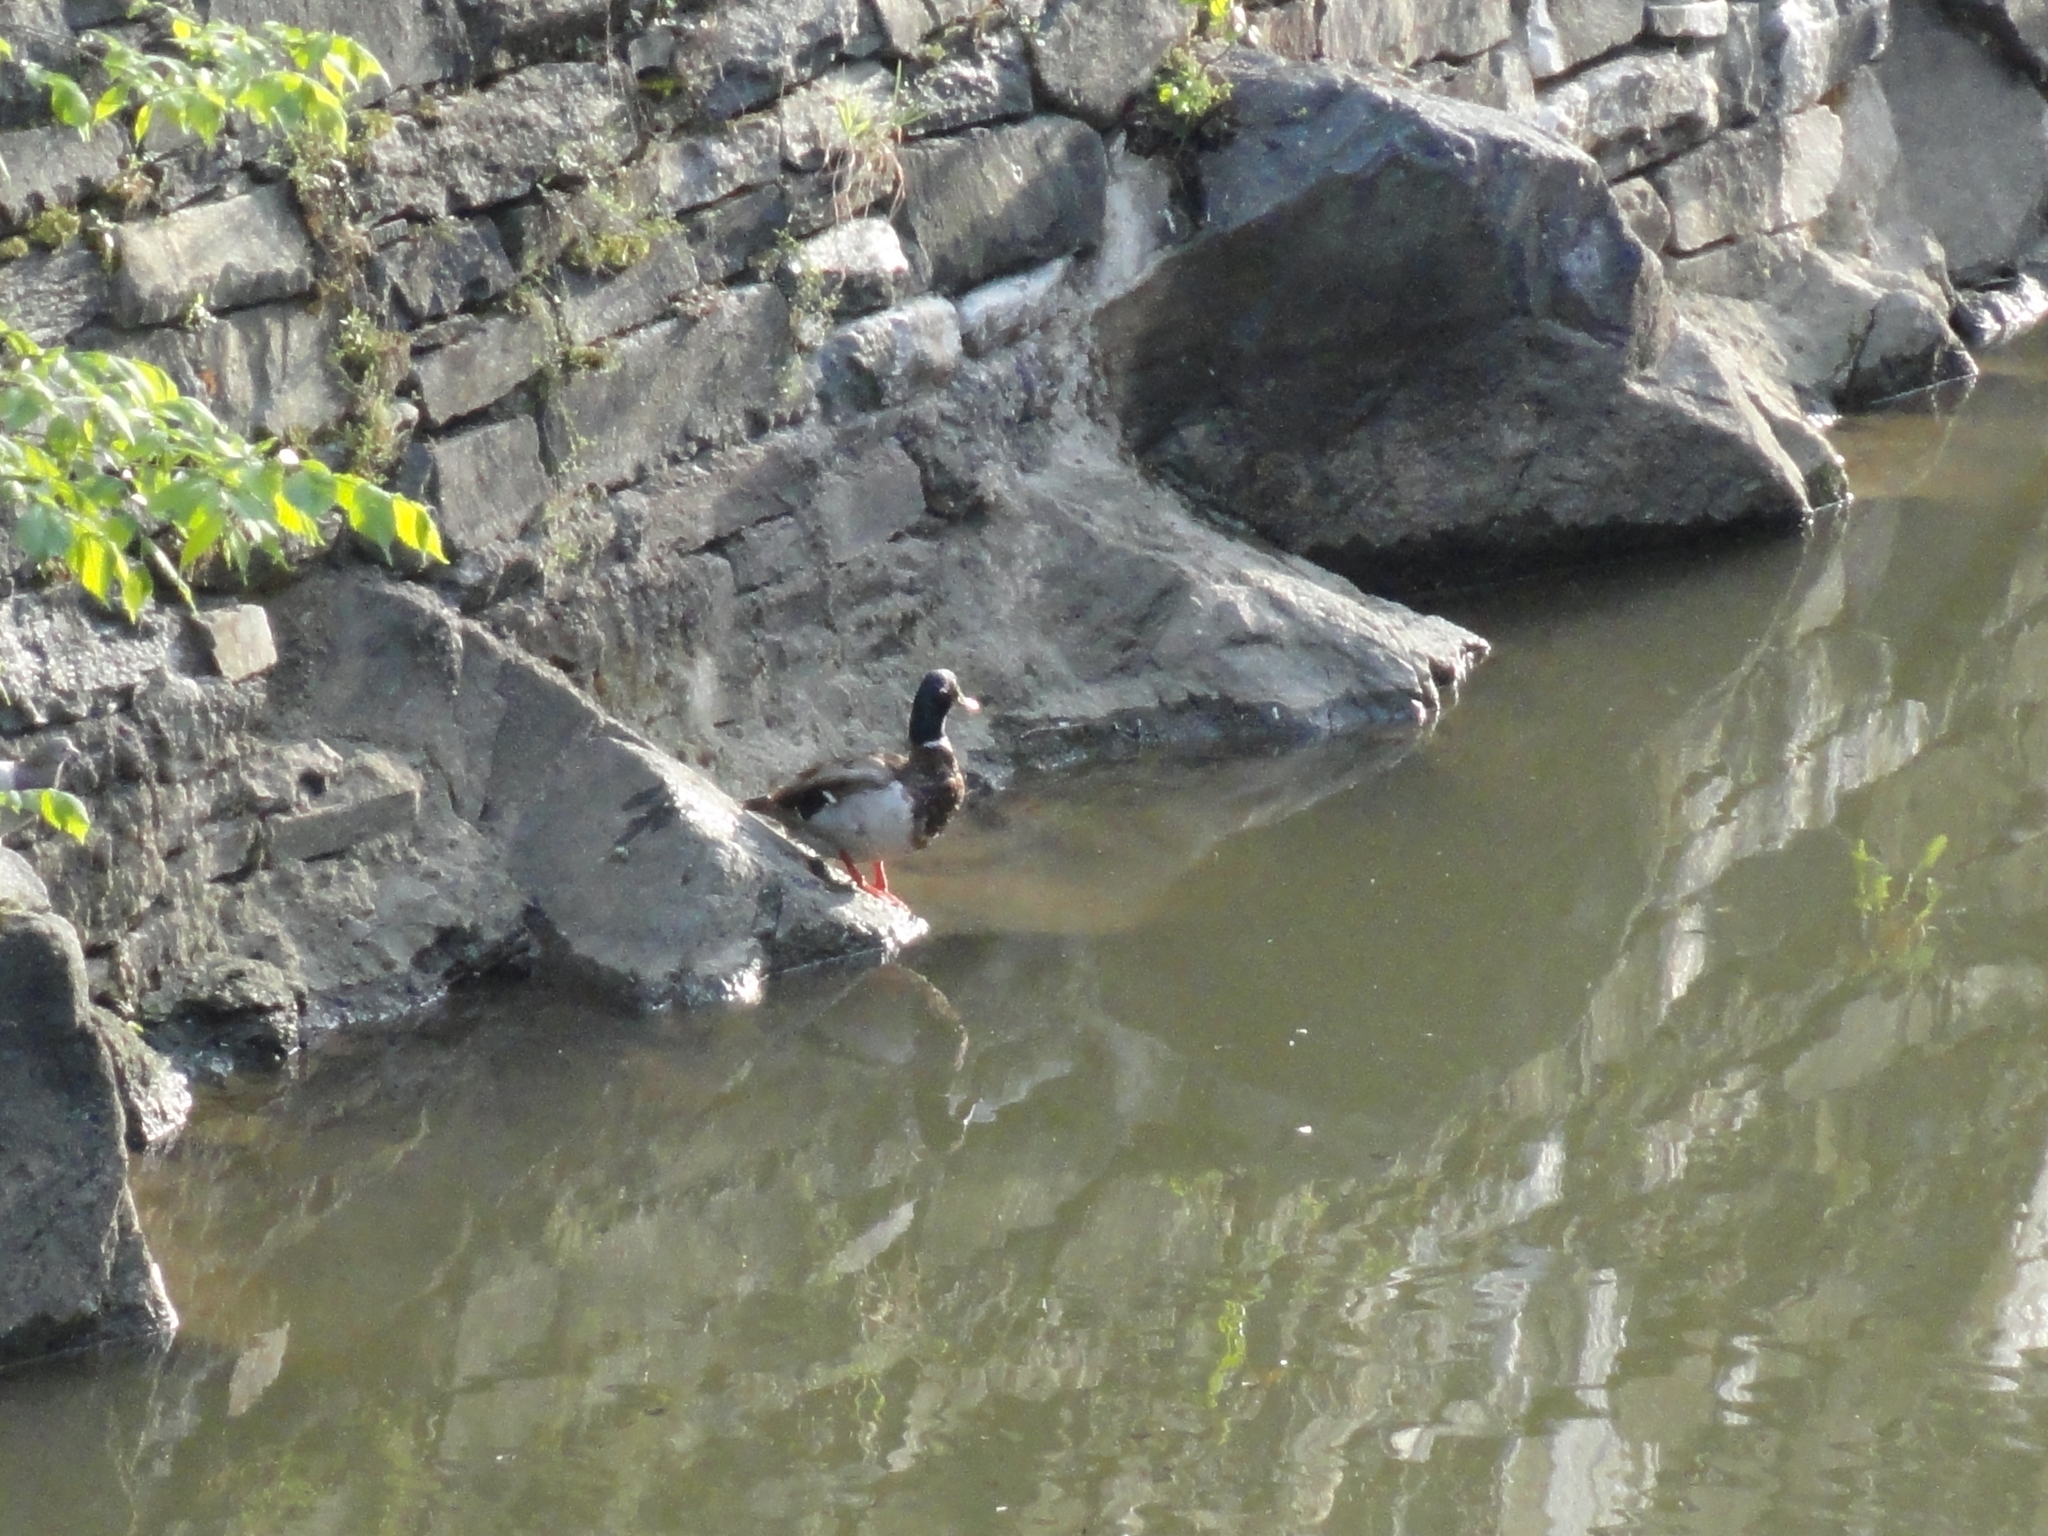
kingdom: Animalia
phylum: Chordata
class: Aves
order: Anseriformes
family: Anatidae
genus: Anas
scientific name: Anas platyrhynchos
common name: Mallard
